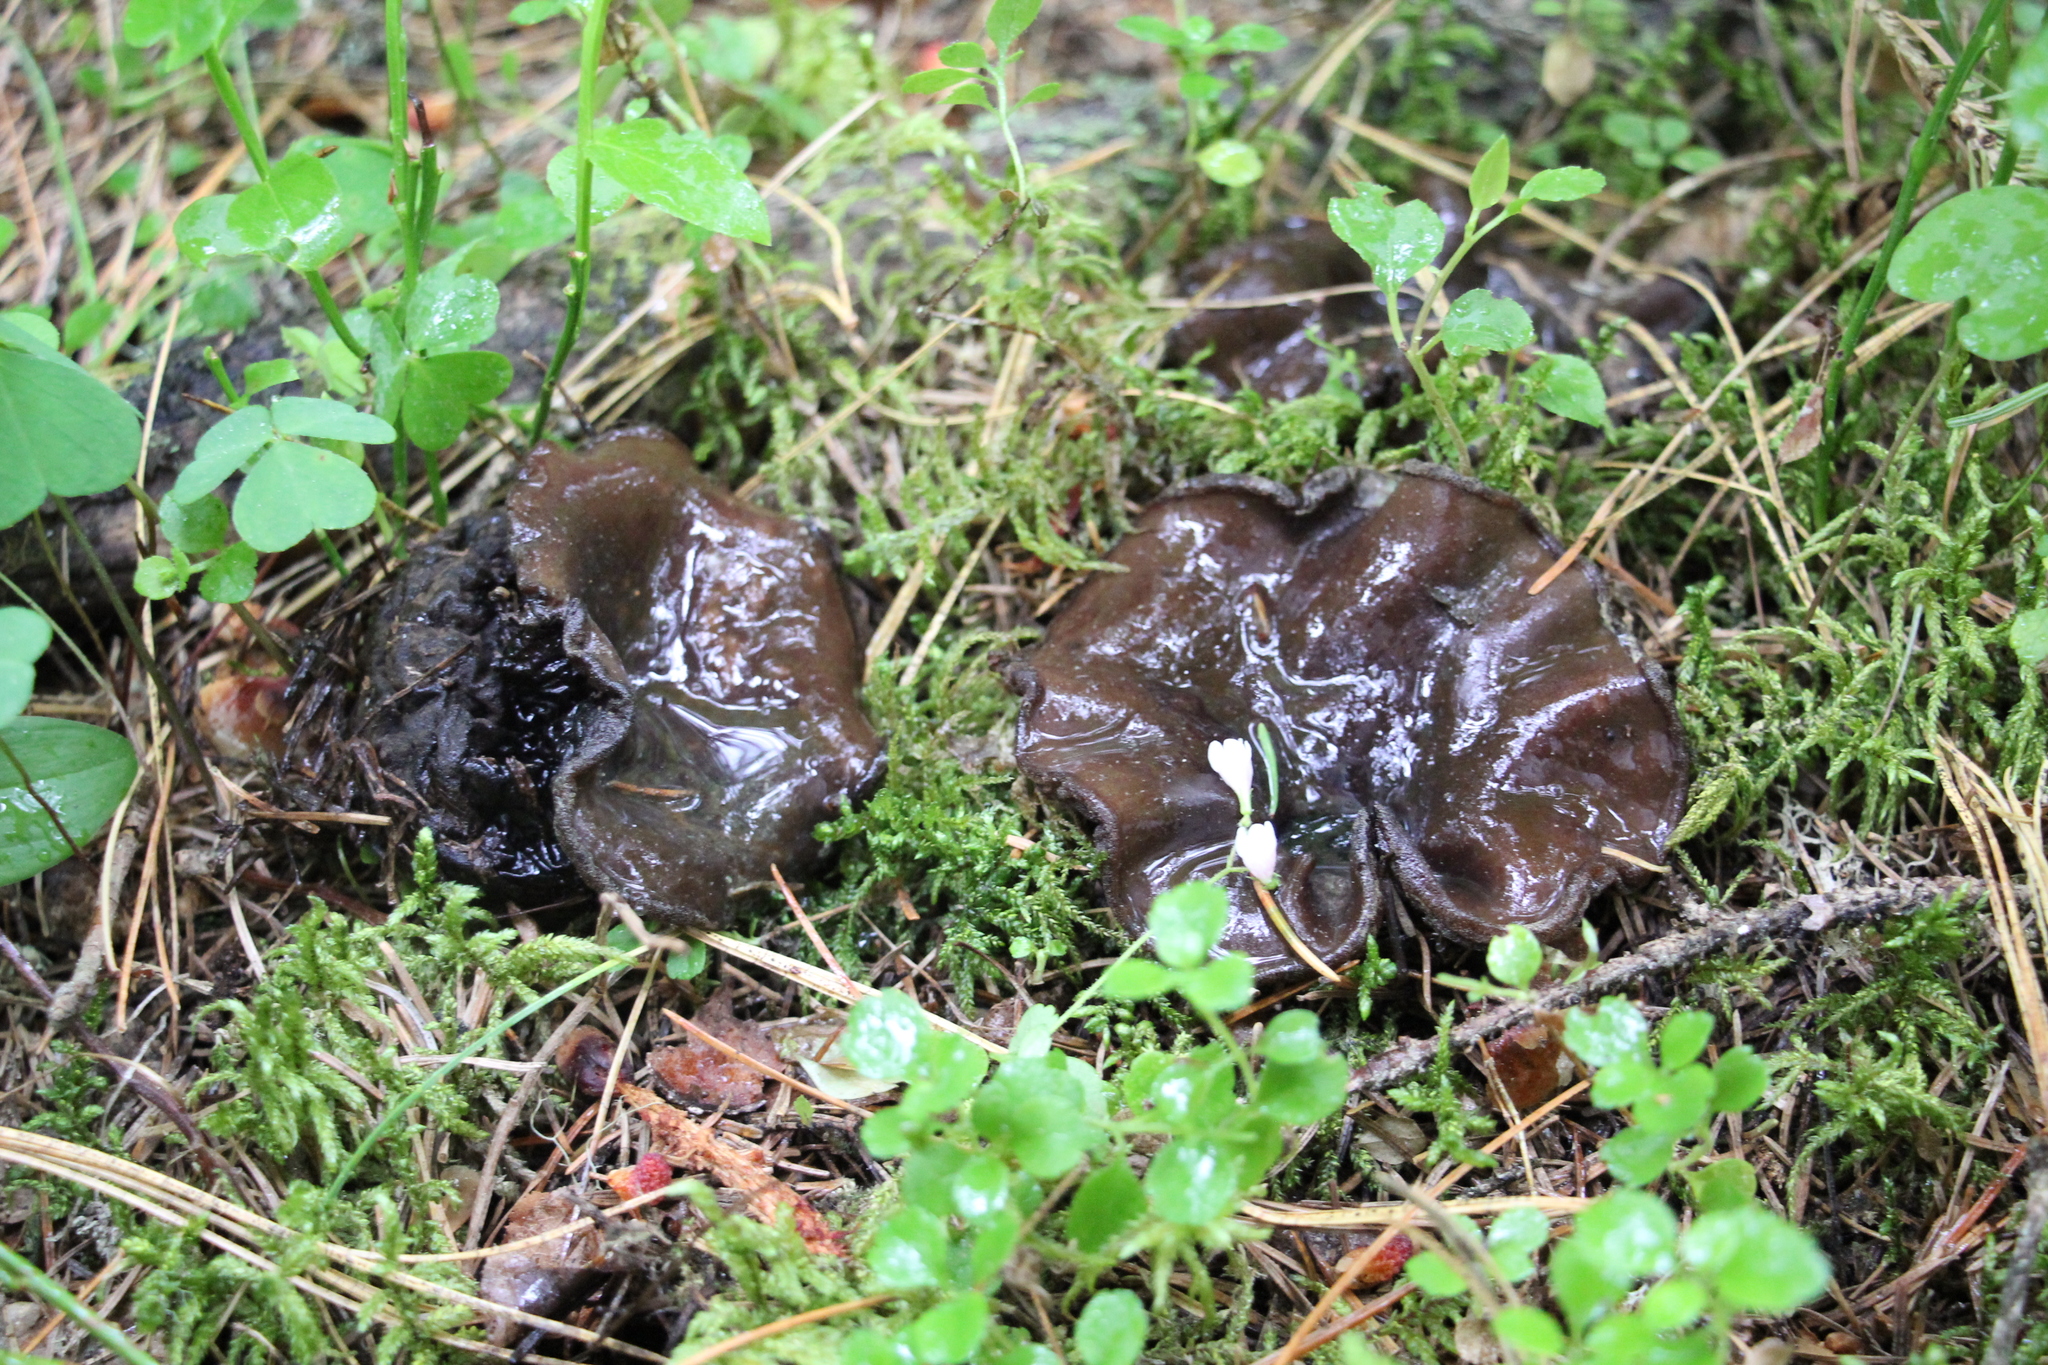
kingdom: Fungi
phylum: Ascomycota
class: Pezizomycetes
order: Pezizales
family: Sarcosomataceae
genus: Sarcosoma
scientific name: Sarcosoma globosum
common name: Charred-pancake cup
